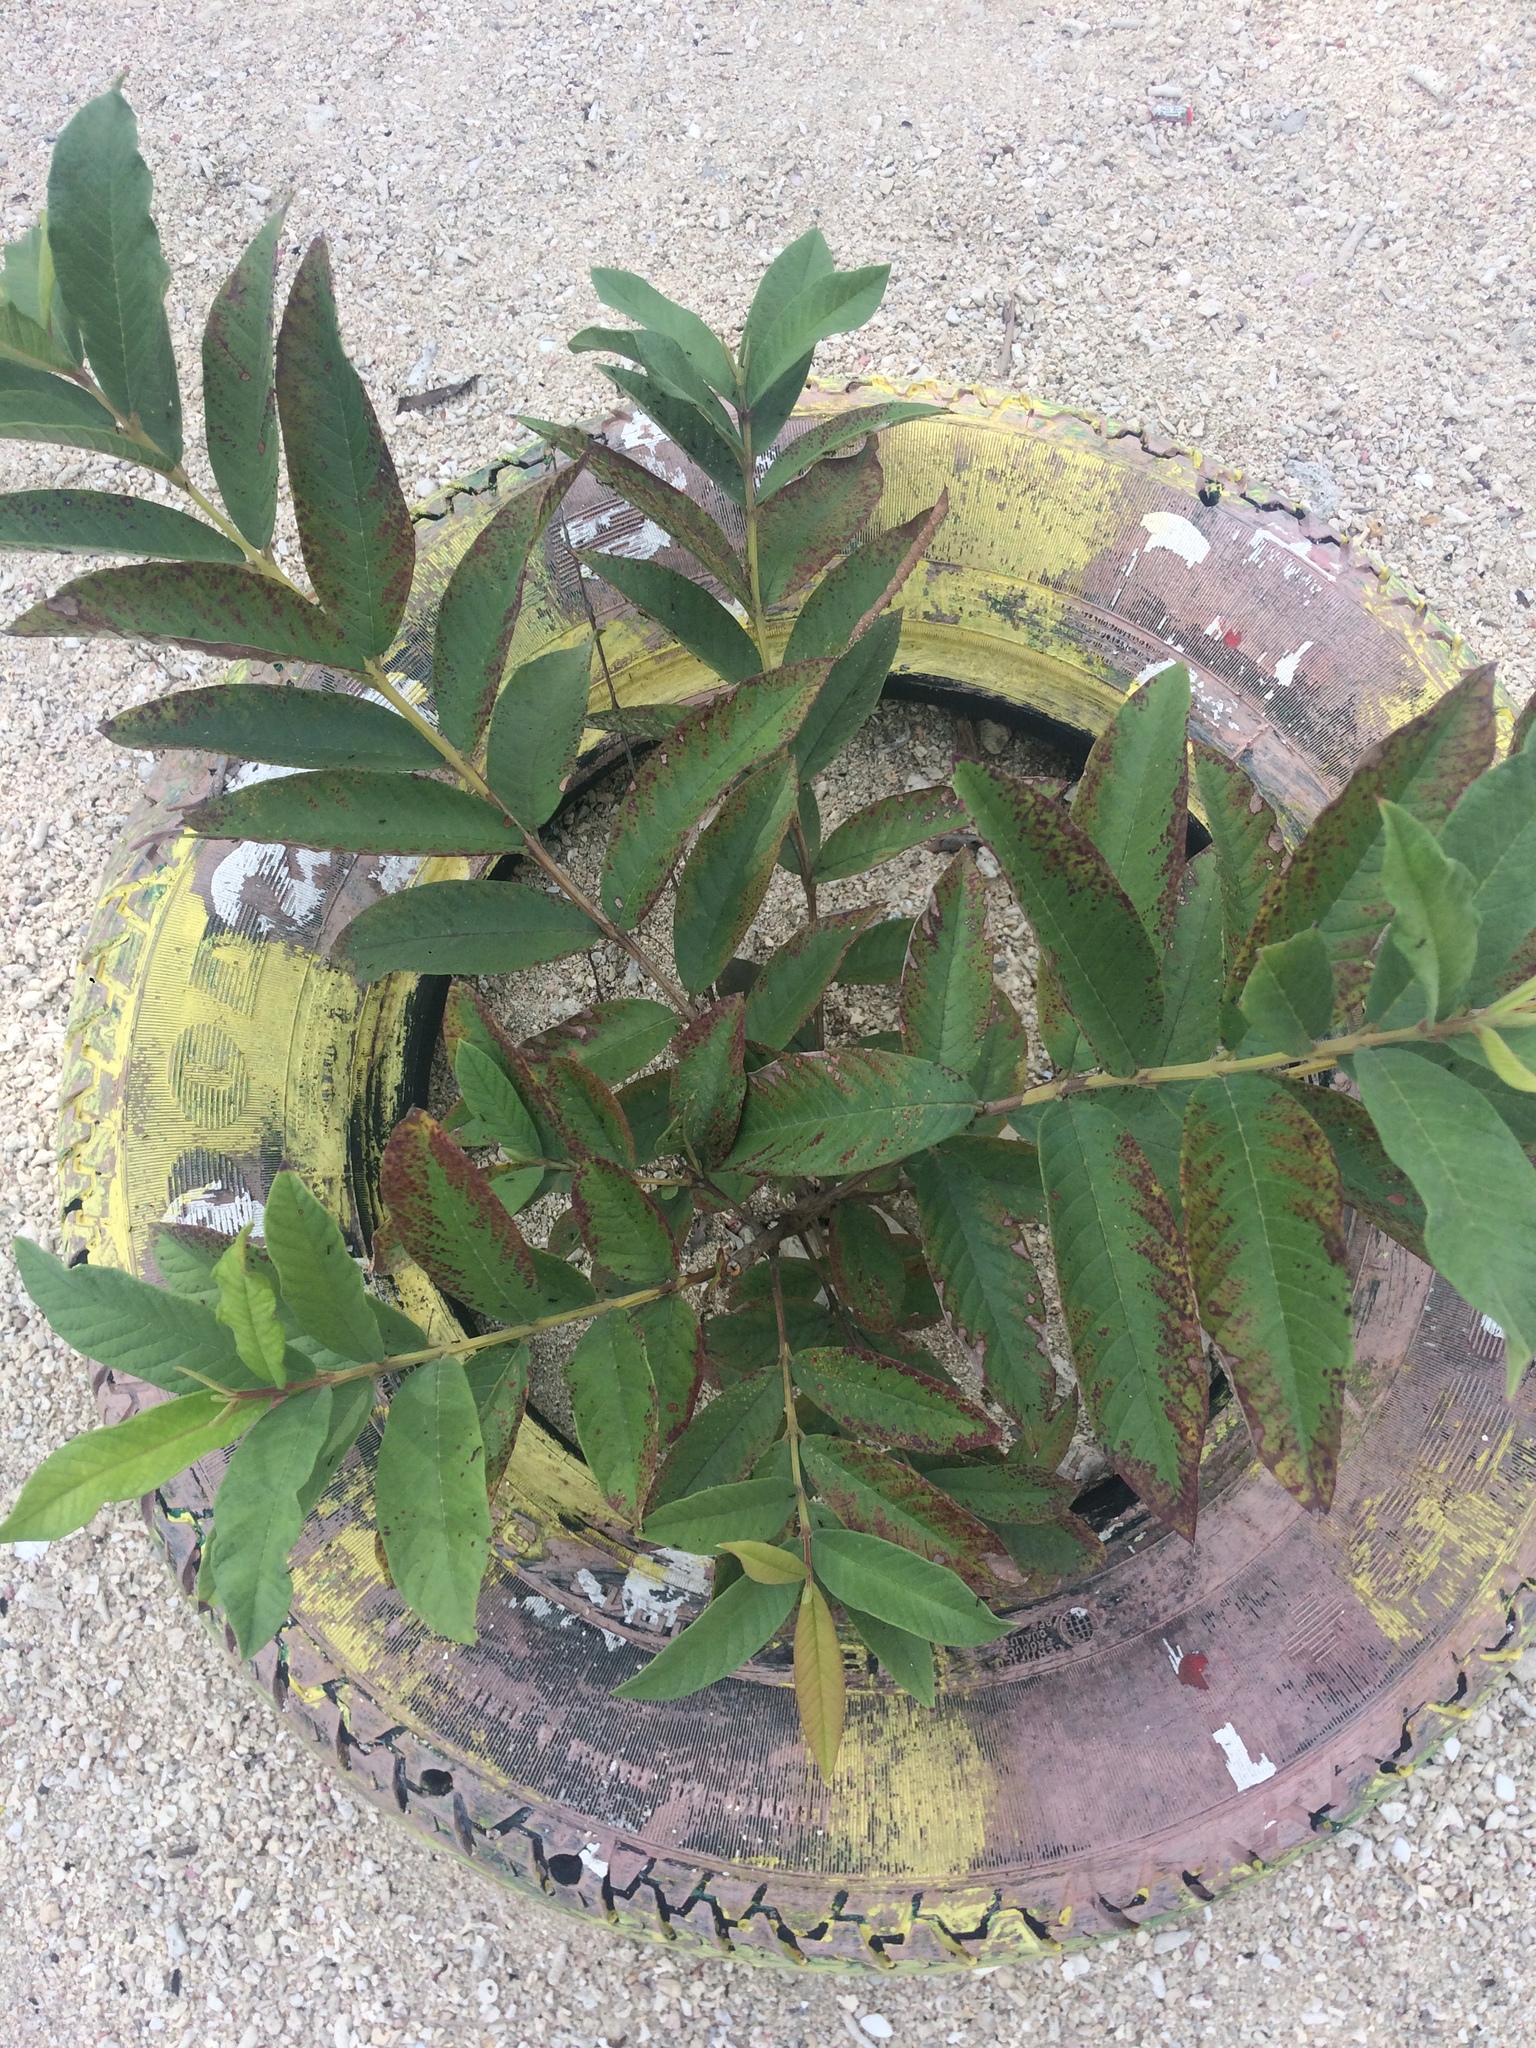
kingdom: Plantae
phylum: Tracheophyta
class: Magnoliopsida
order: Myrtales
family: Myrtaceae
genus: Psidium
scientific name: Psidium guajava
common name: Guava
